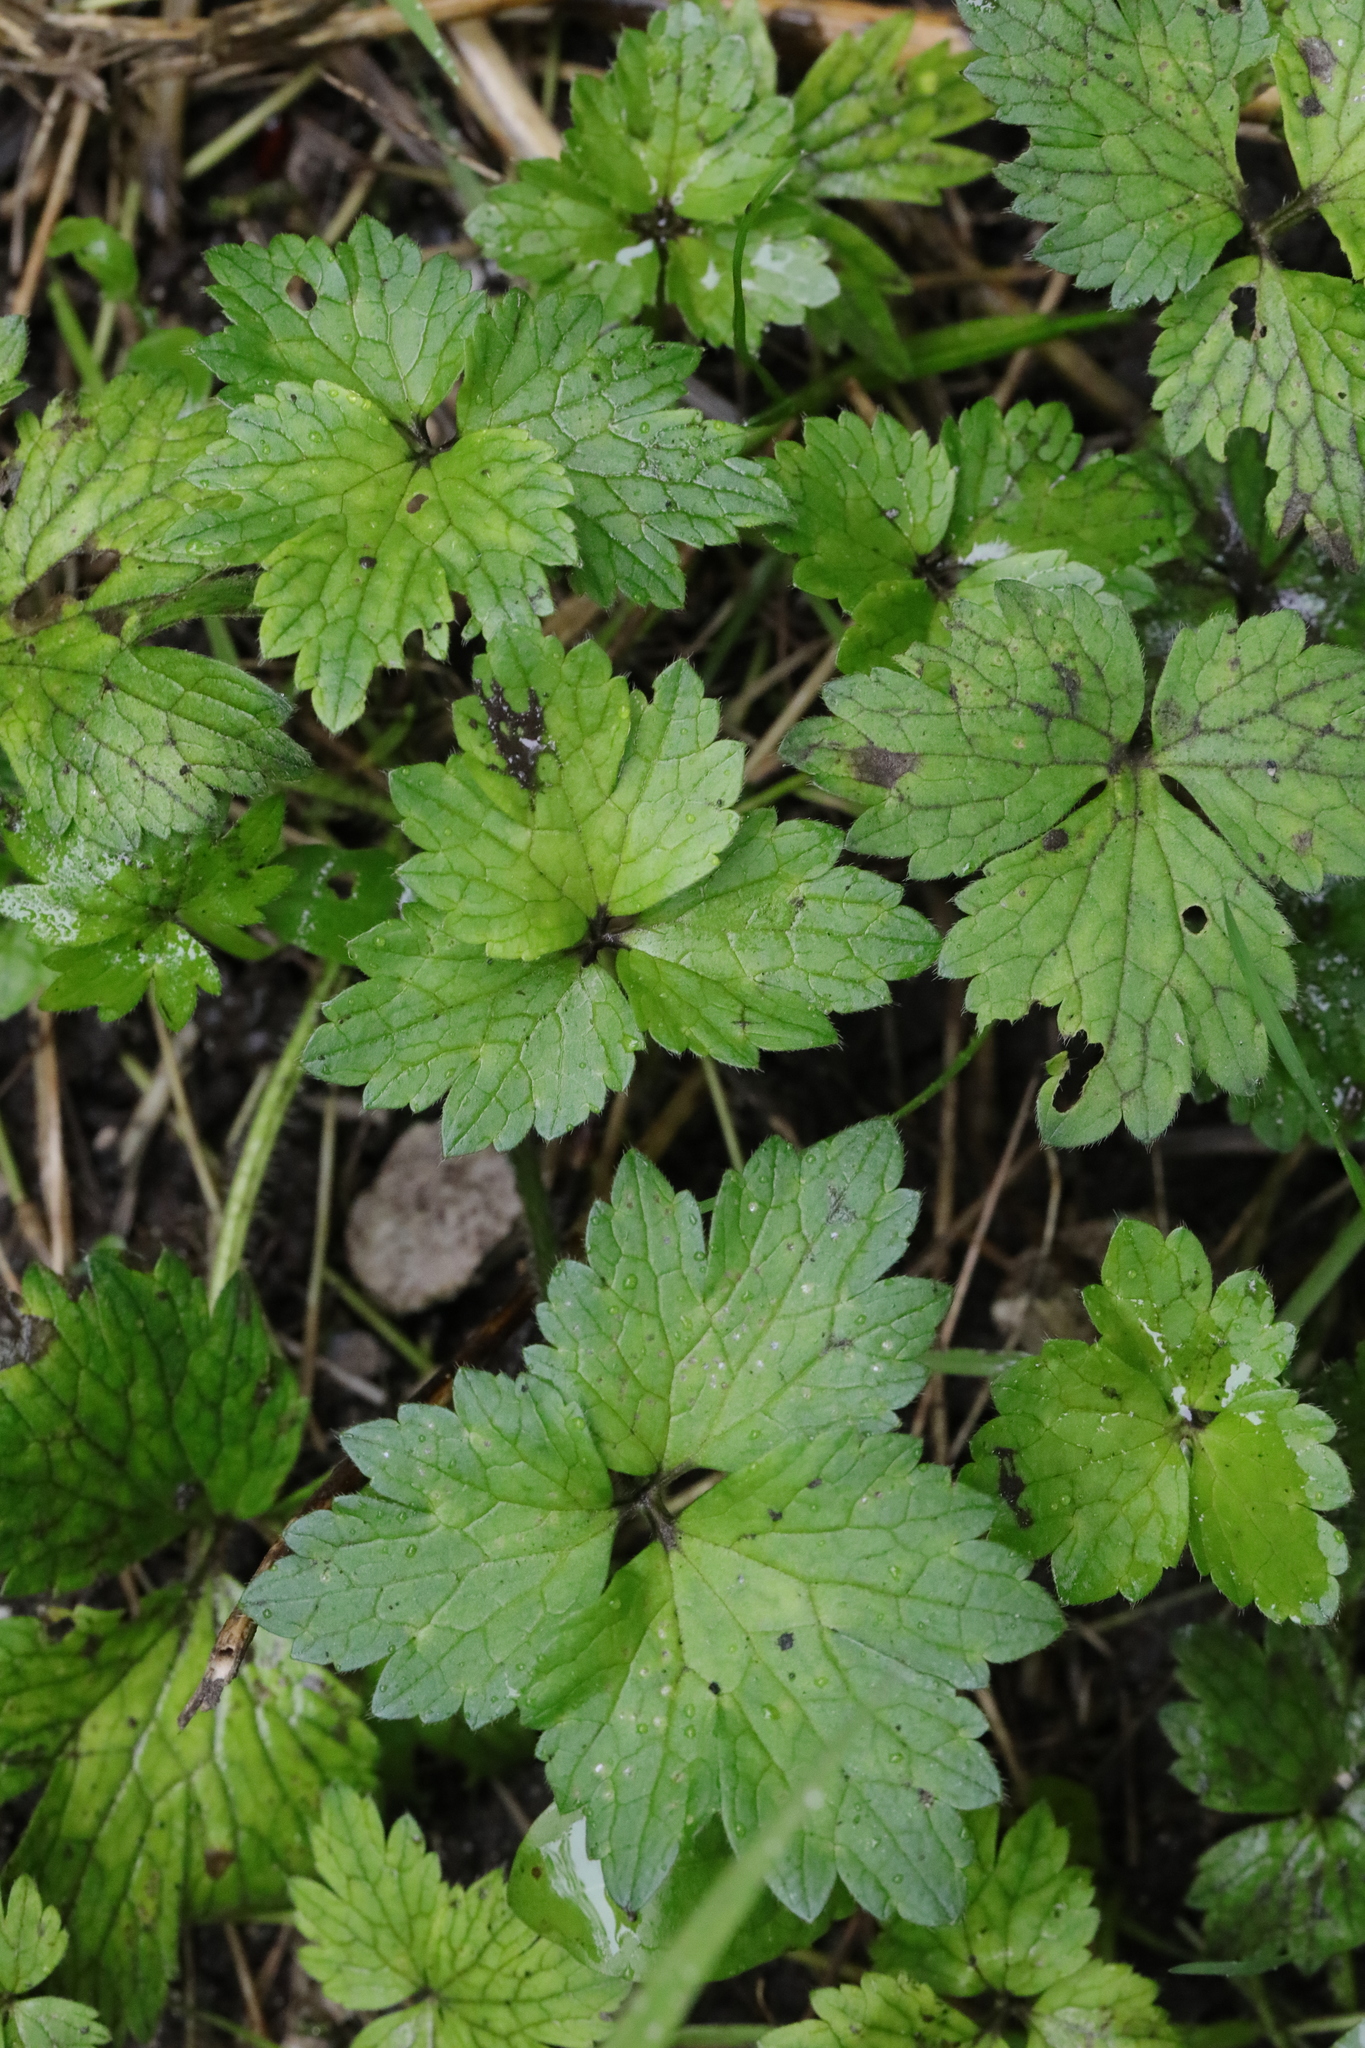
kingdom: Plantae
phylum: Tracheophyta
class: Magnoliopsida
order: Ranunculales
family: Ranunculaceae
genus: Ranunculus
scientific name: Ranunculus repens
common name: Creeping buttercup
